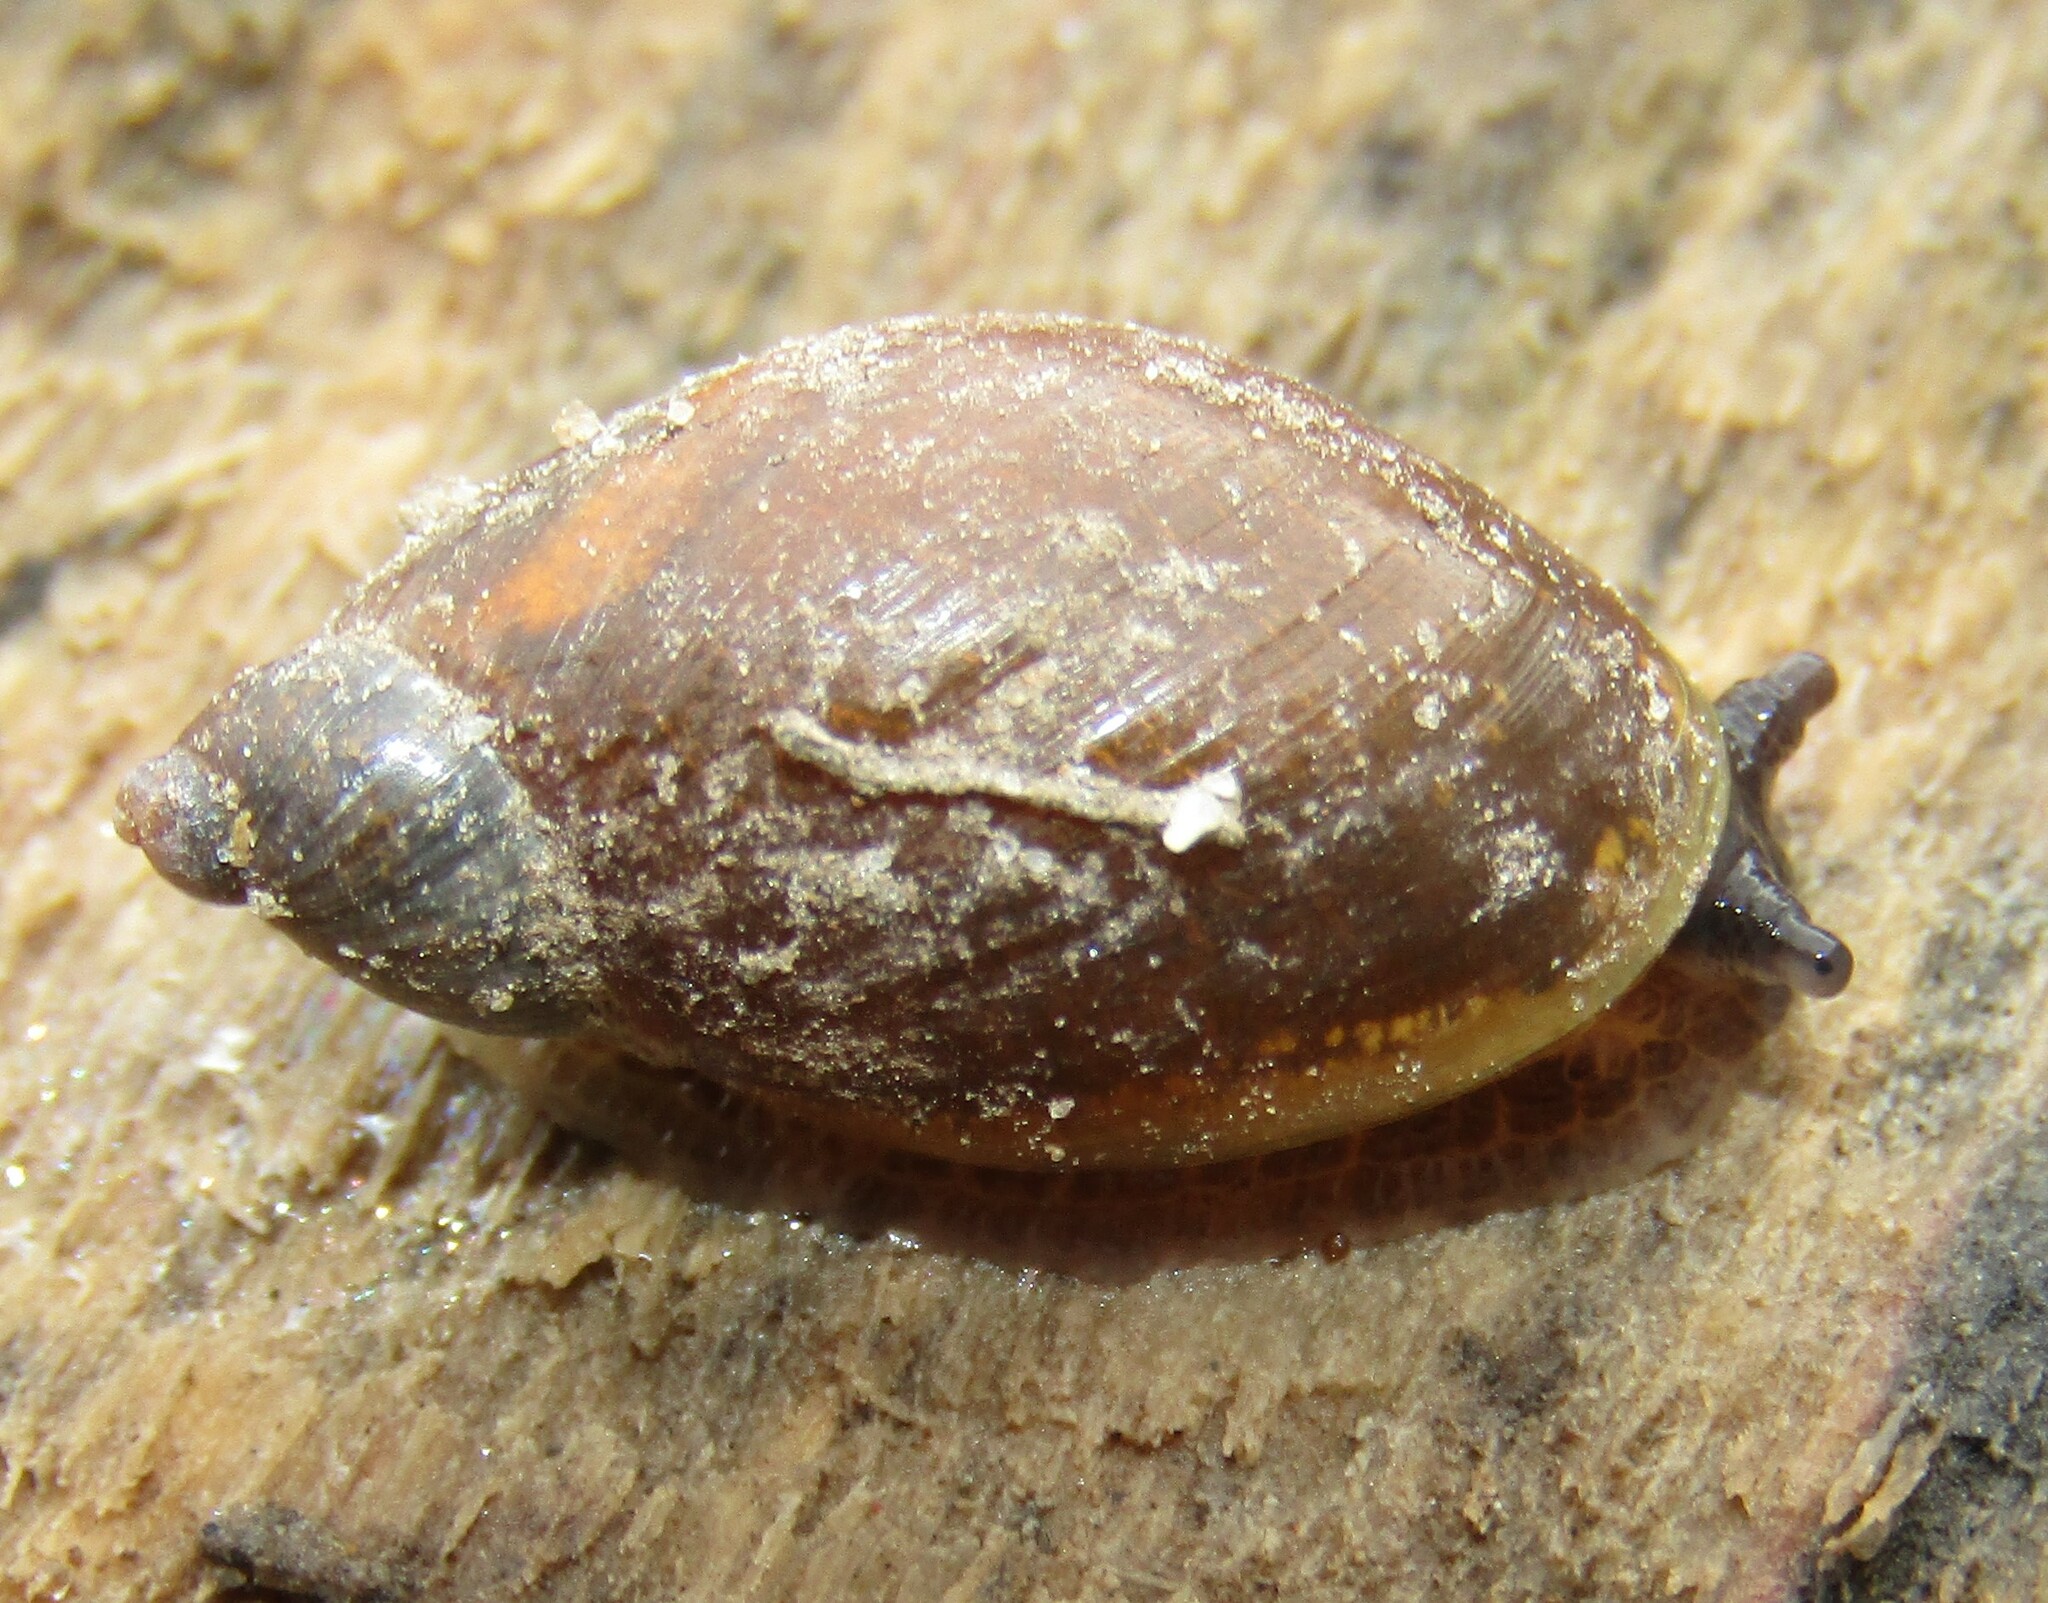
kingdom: Animalia
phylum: Mollusca
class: Gastropoda
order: Stylommatophora
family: Succineidae
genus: Succinea
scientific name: Succinea putris
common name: European ambersnail
